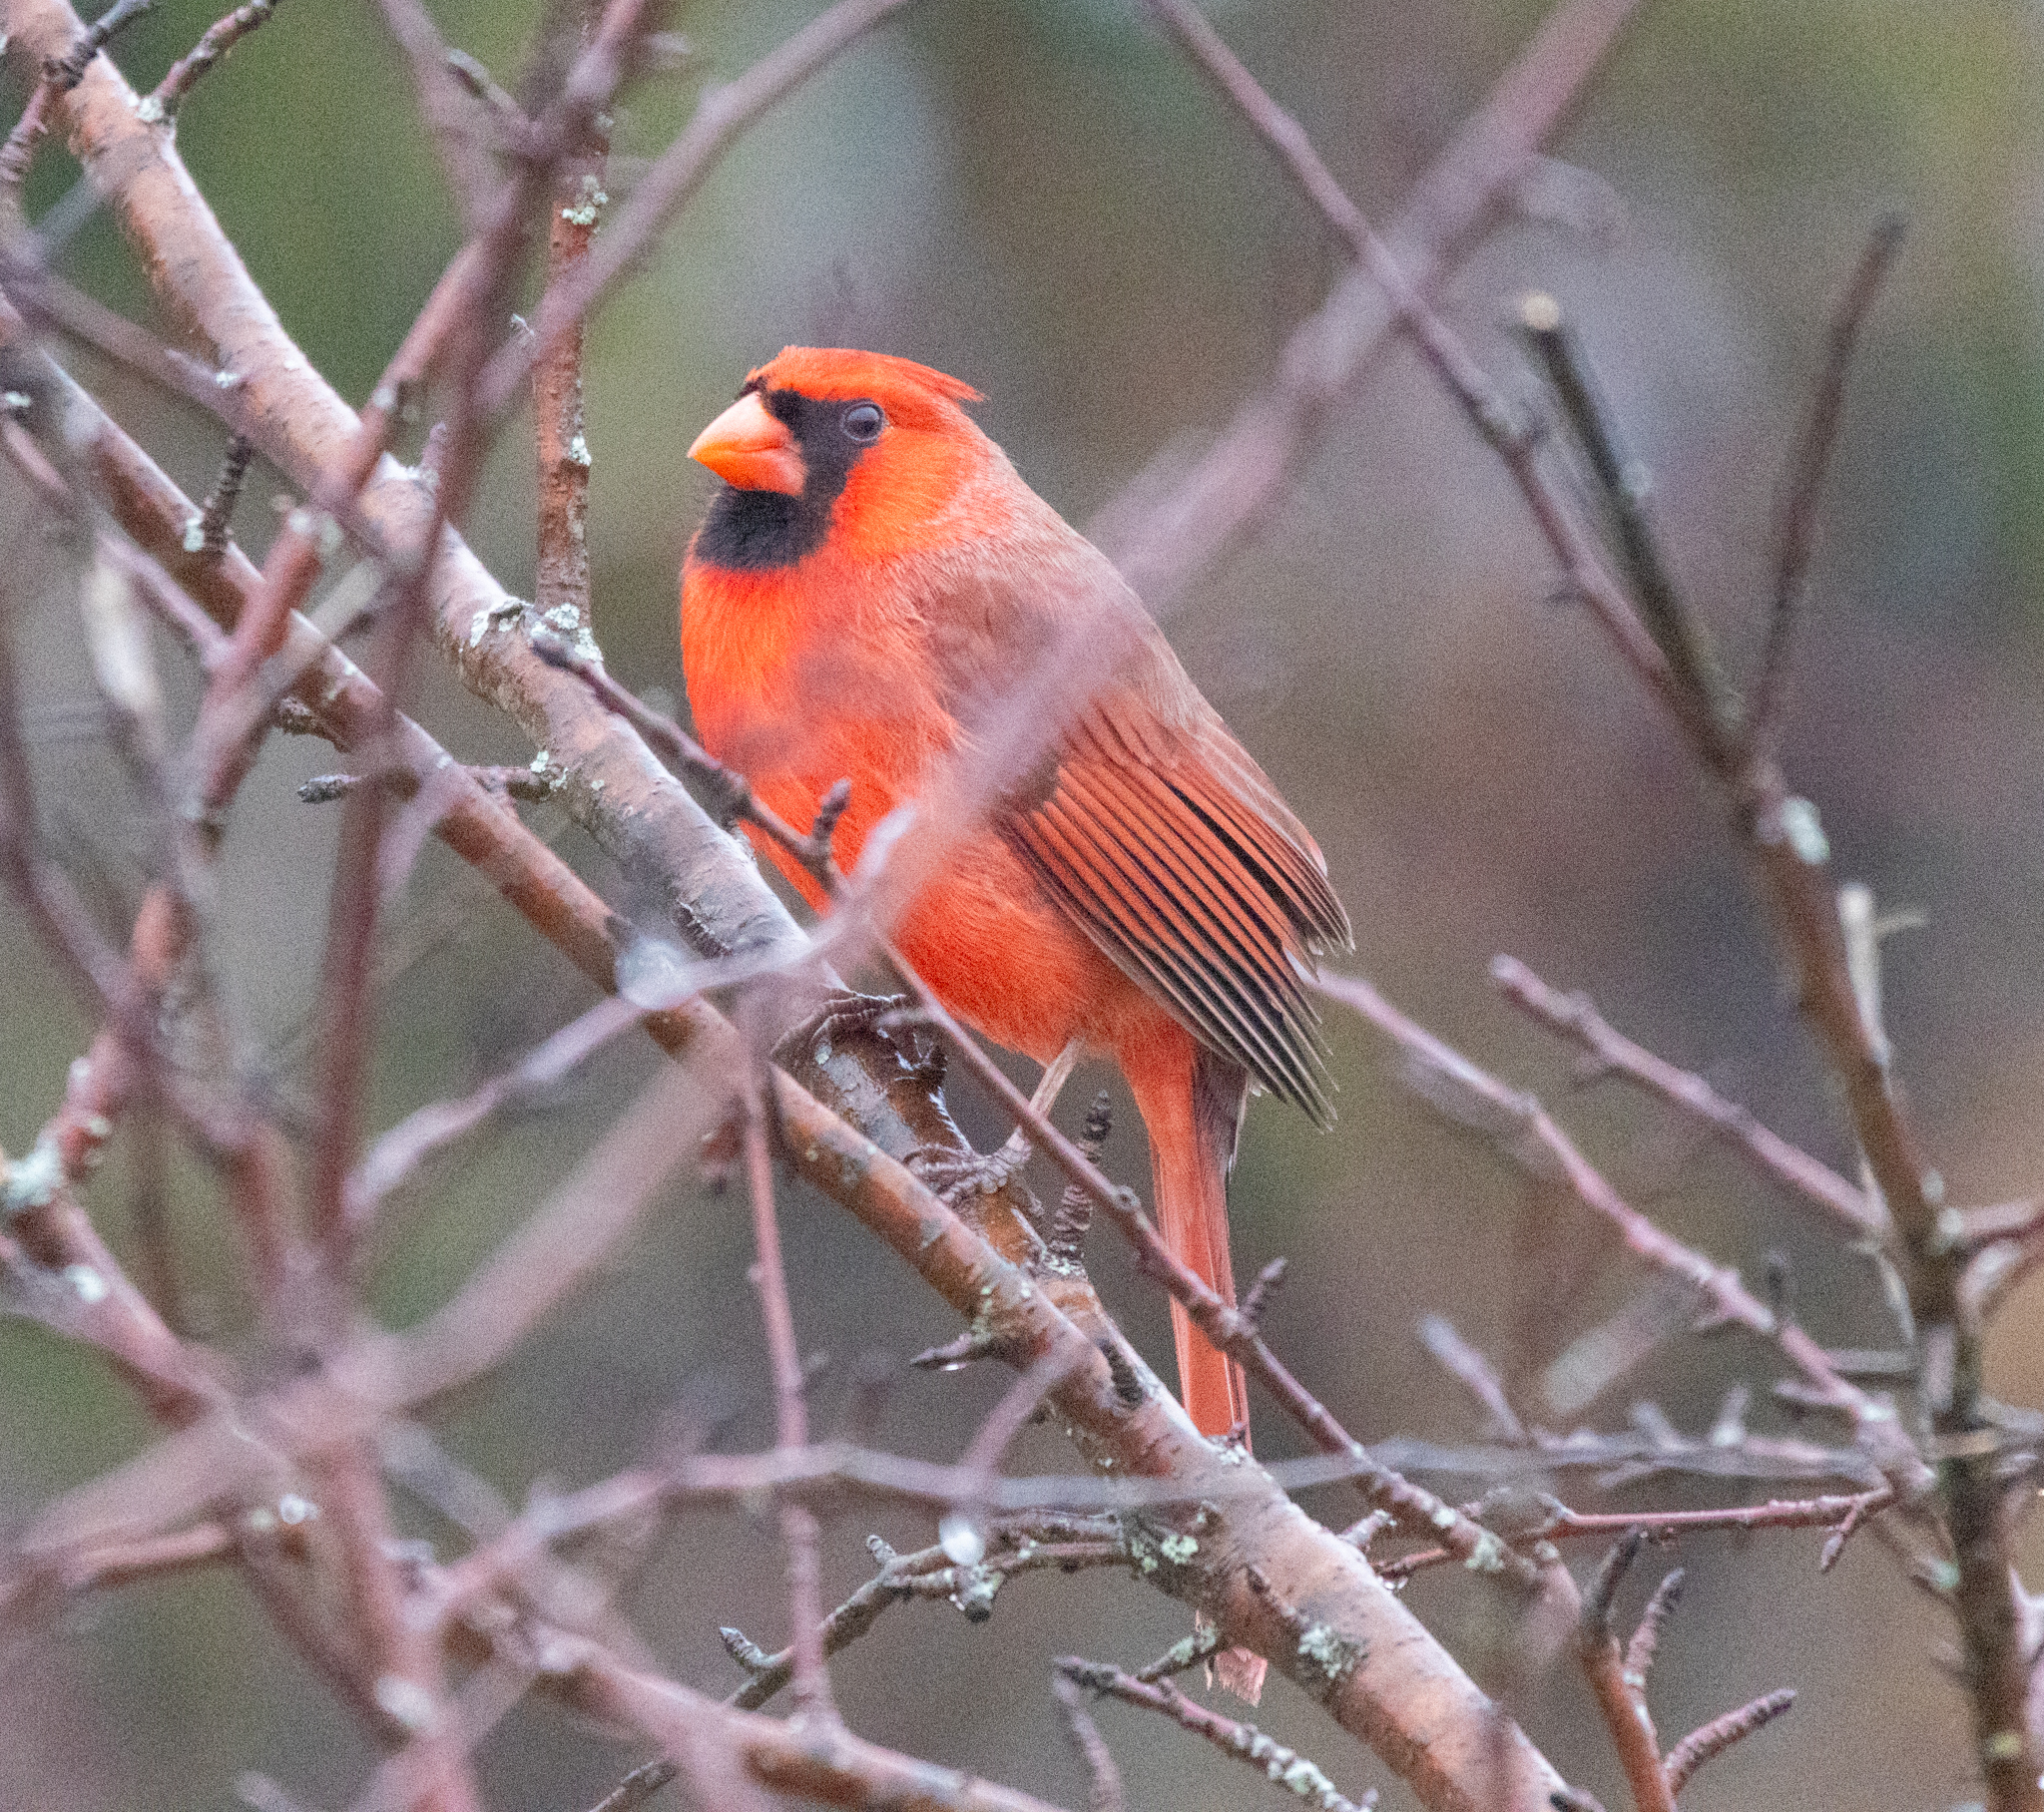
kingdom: Animalia
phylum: Chordata
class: Aves
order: Passeriformes
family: Cardinalidae
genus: Cardinalis
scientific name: Cardinalis cardinalis
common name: Northern cardinal
